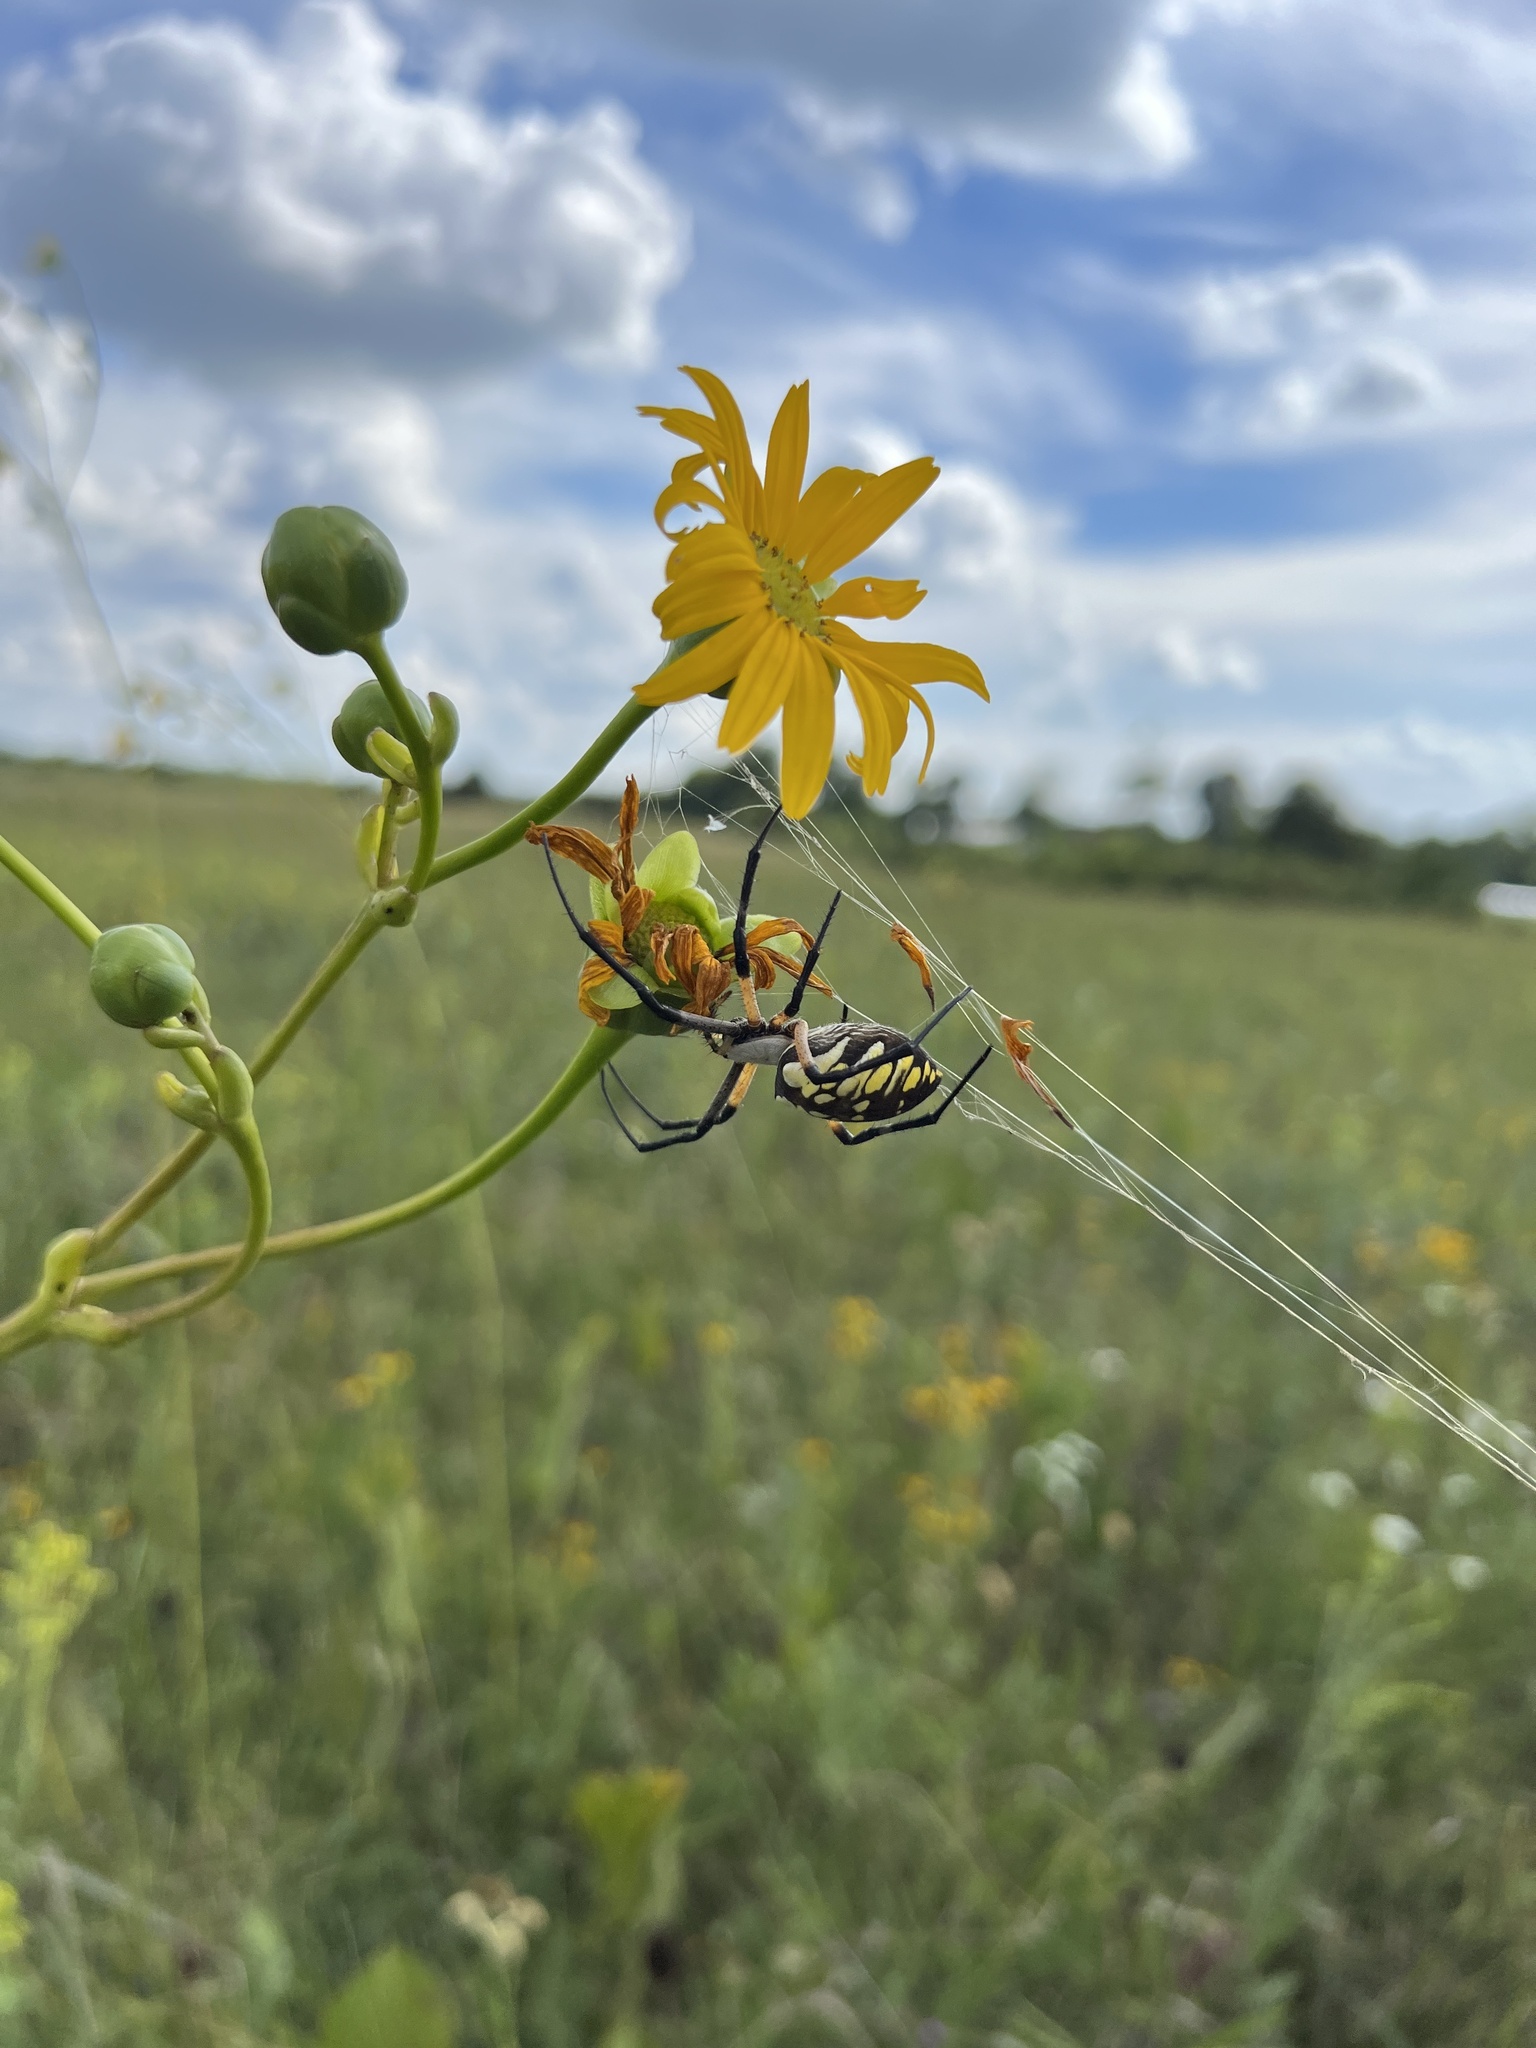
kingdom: Animalia
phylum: Arthropoda
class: Arachnida
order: Araneae
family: Araneidae
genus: Argiope
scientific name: Argiope aurantia
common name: Orb weavers
